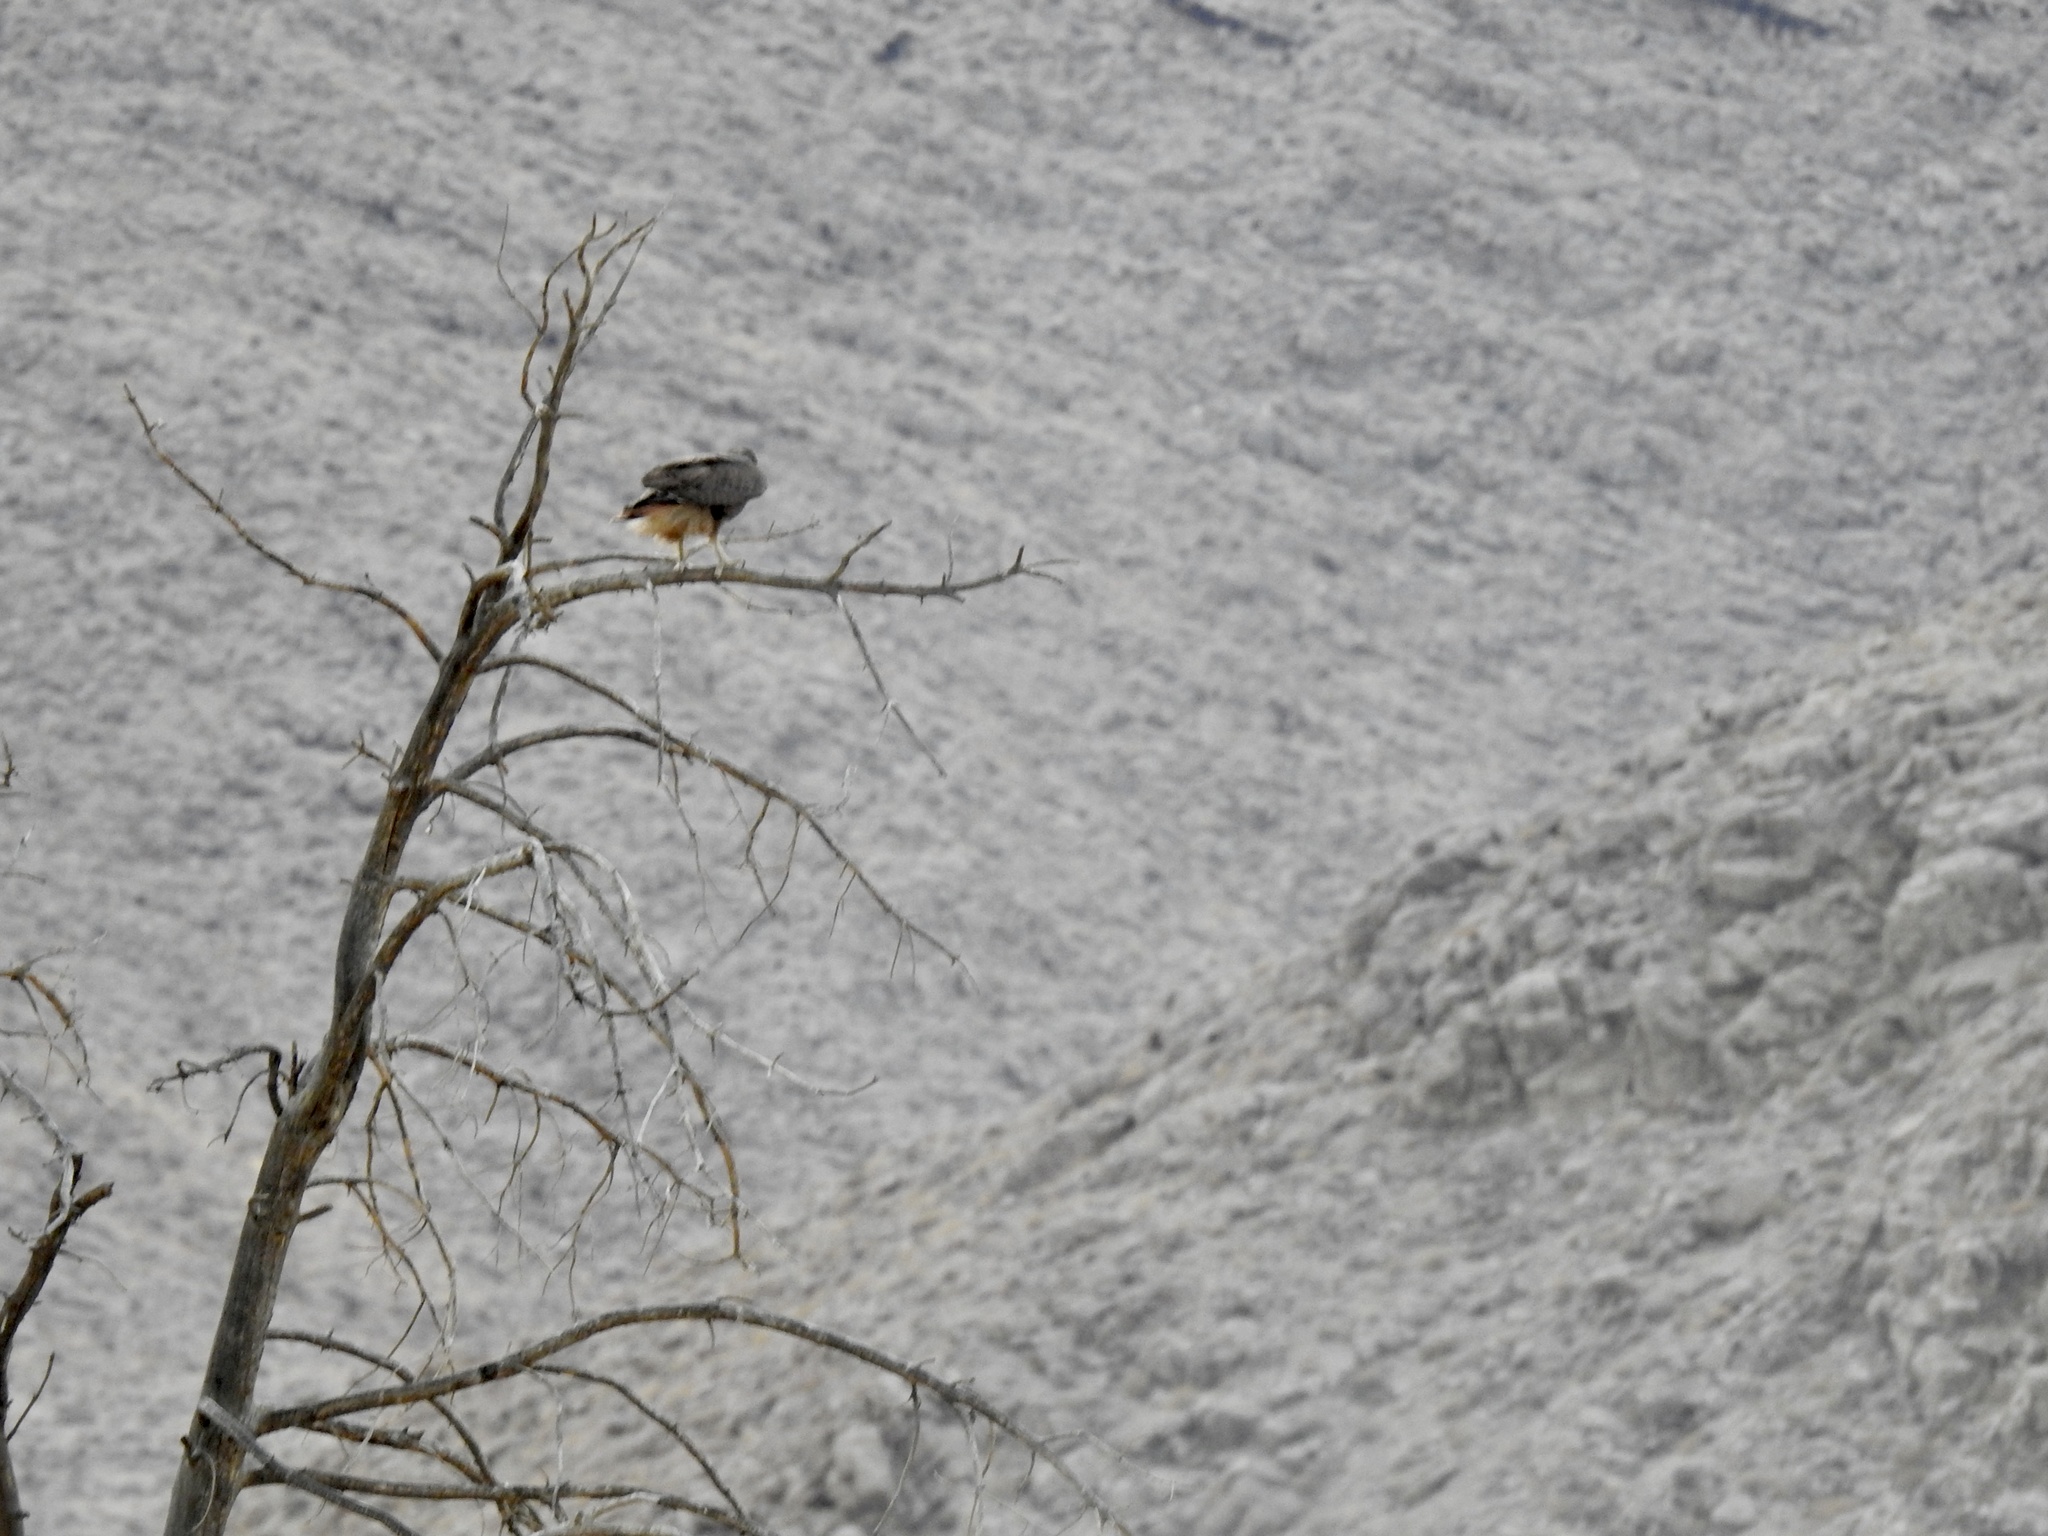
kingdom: Animalia
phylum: Chordata
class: Aves
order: Accipitriformes
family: Accipitridae
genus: Buteo
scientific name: Buteo jamaicensis
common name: Red-tailed hawk
